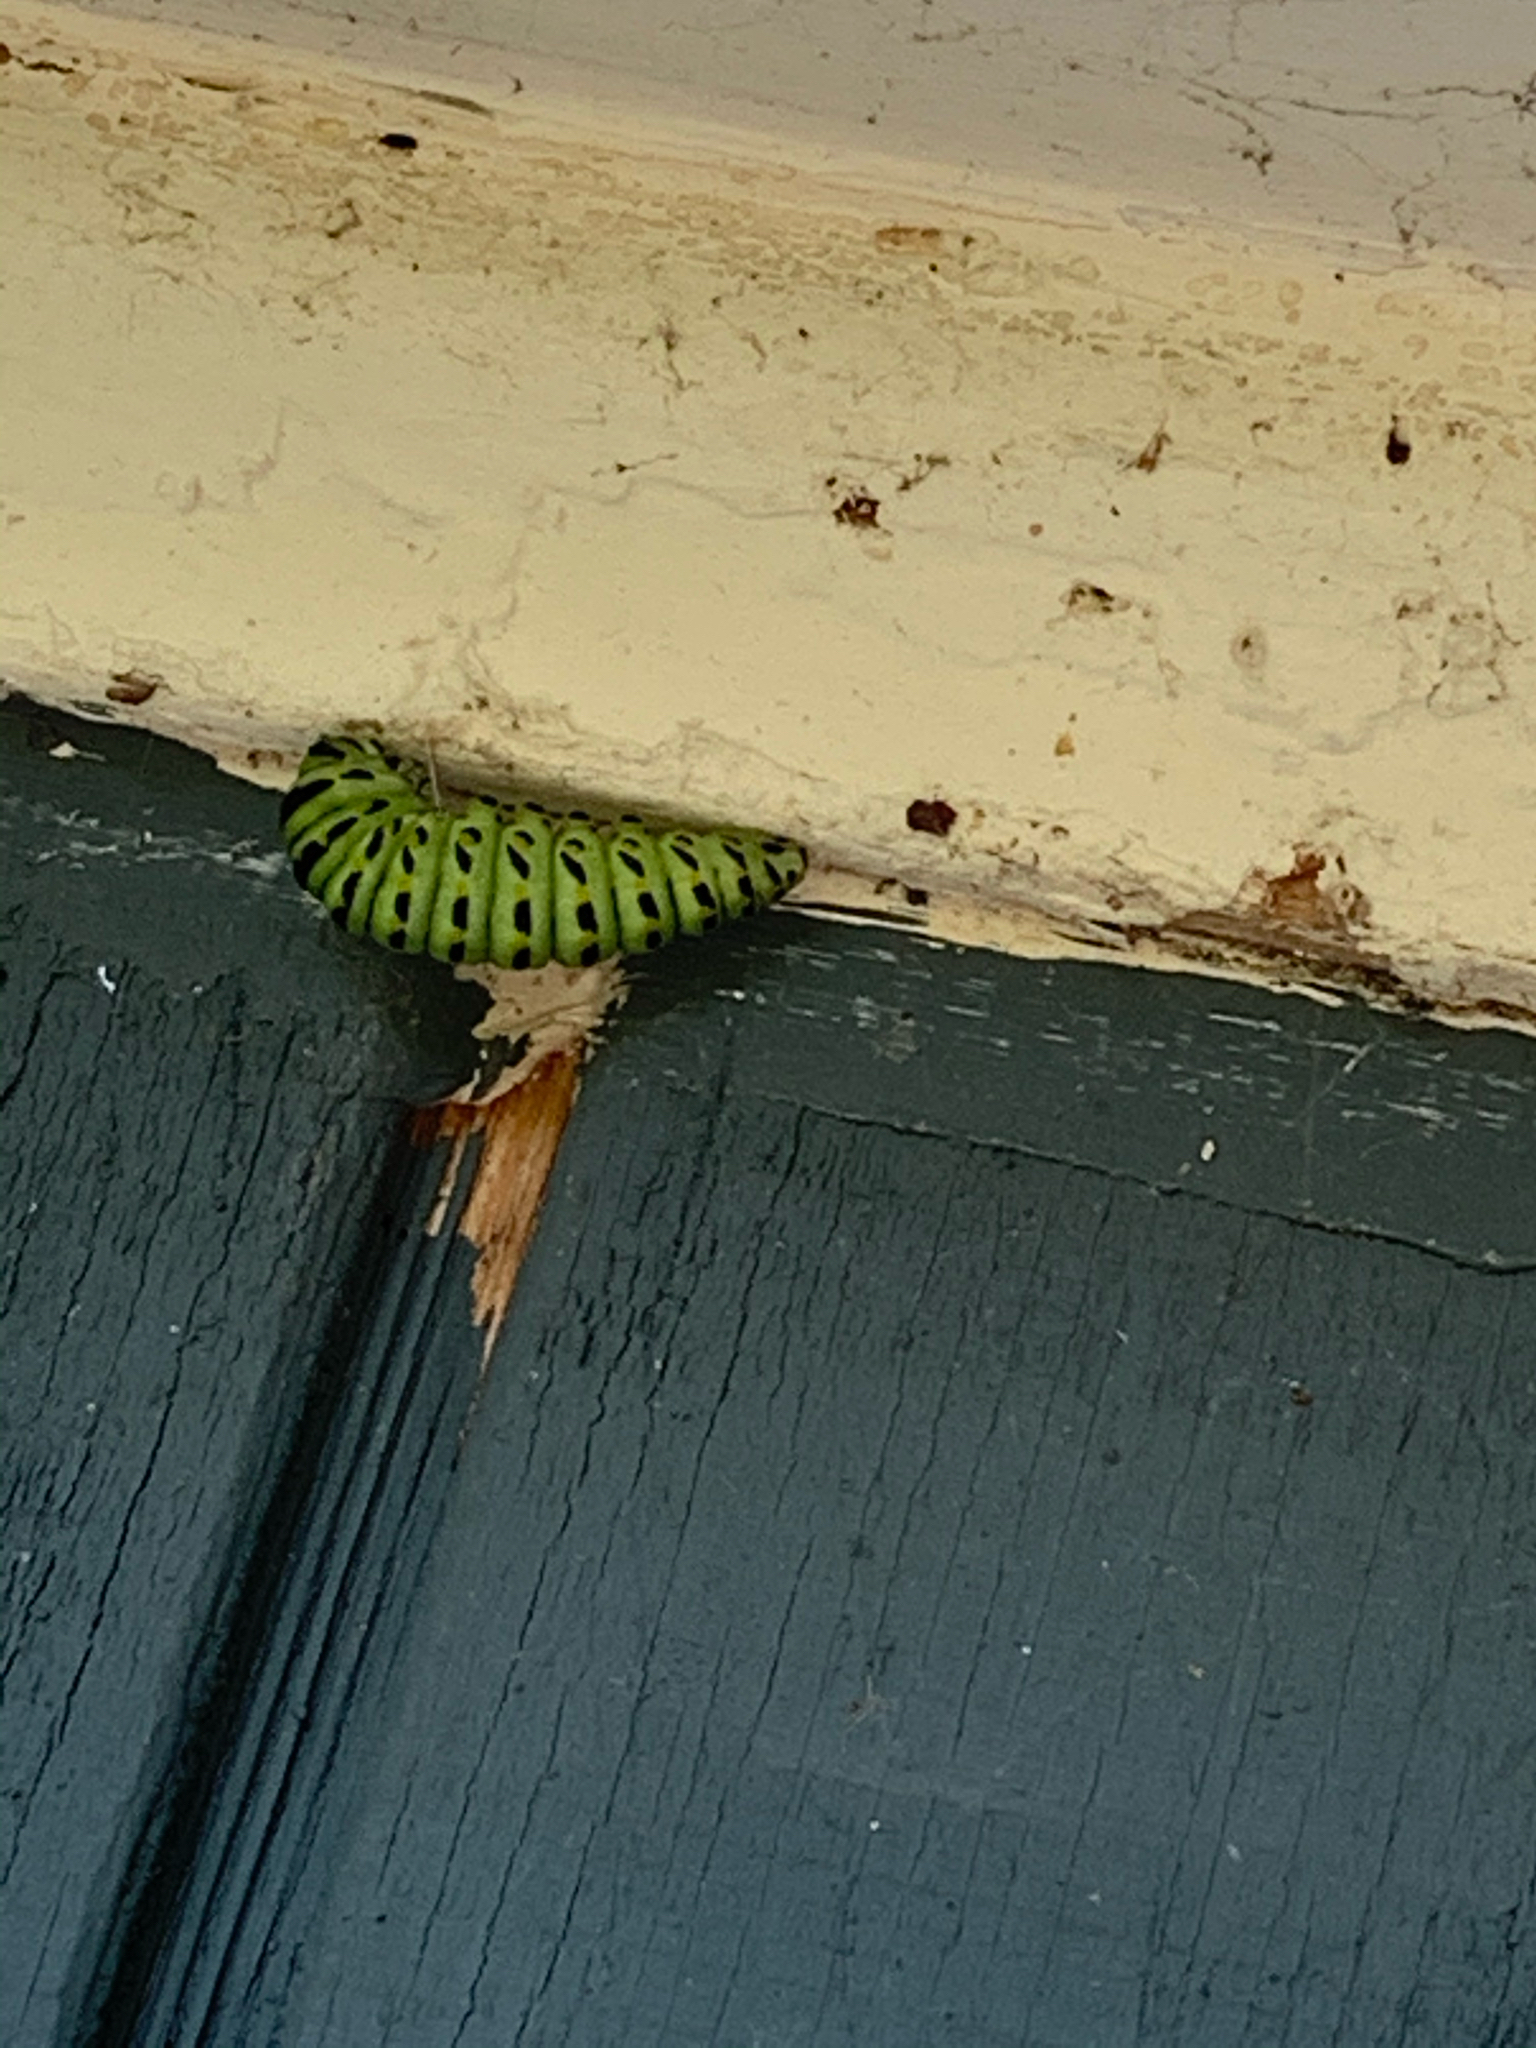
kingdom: Animalia
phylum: Arthropoda
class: Insecta
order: Lepidoptera
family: Papilionidae
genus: Papilio
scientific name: Papilio polyxenes
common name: Black swallowtail
